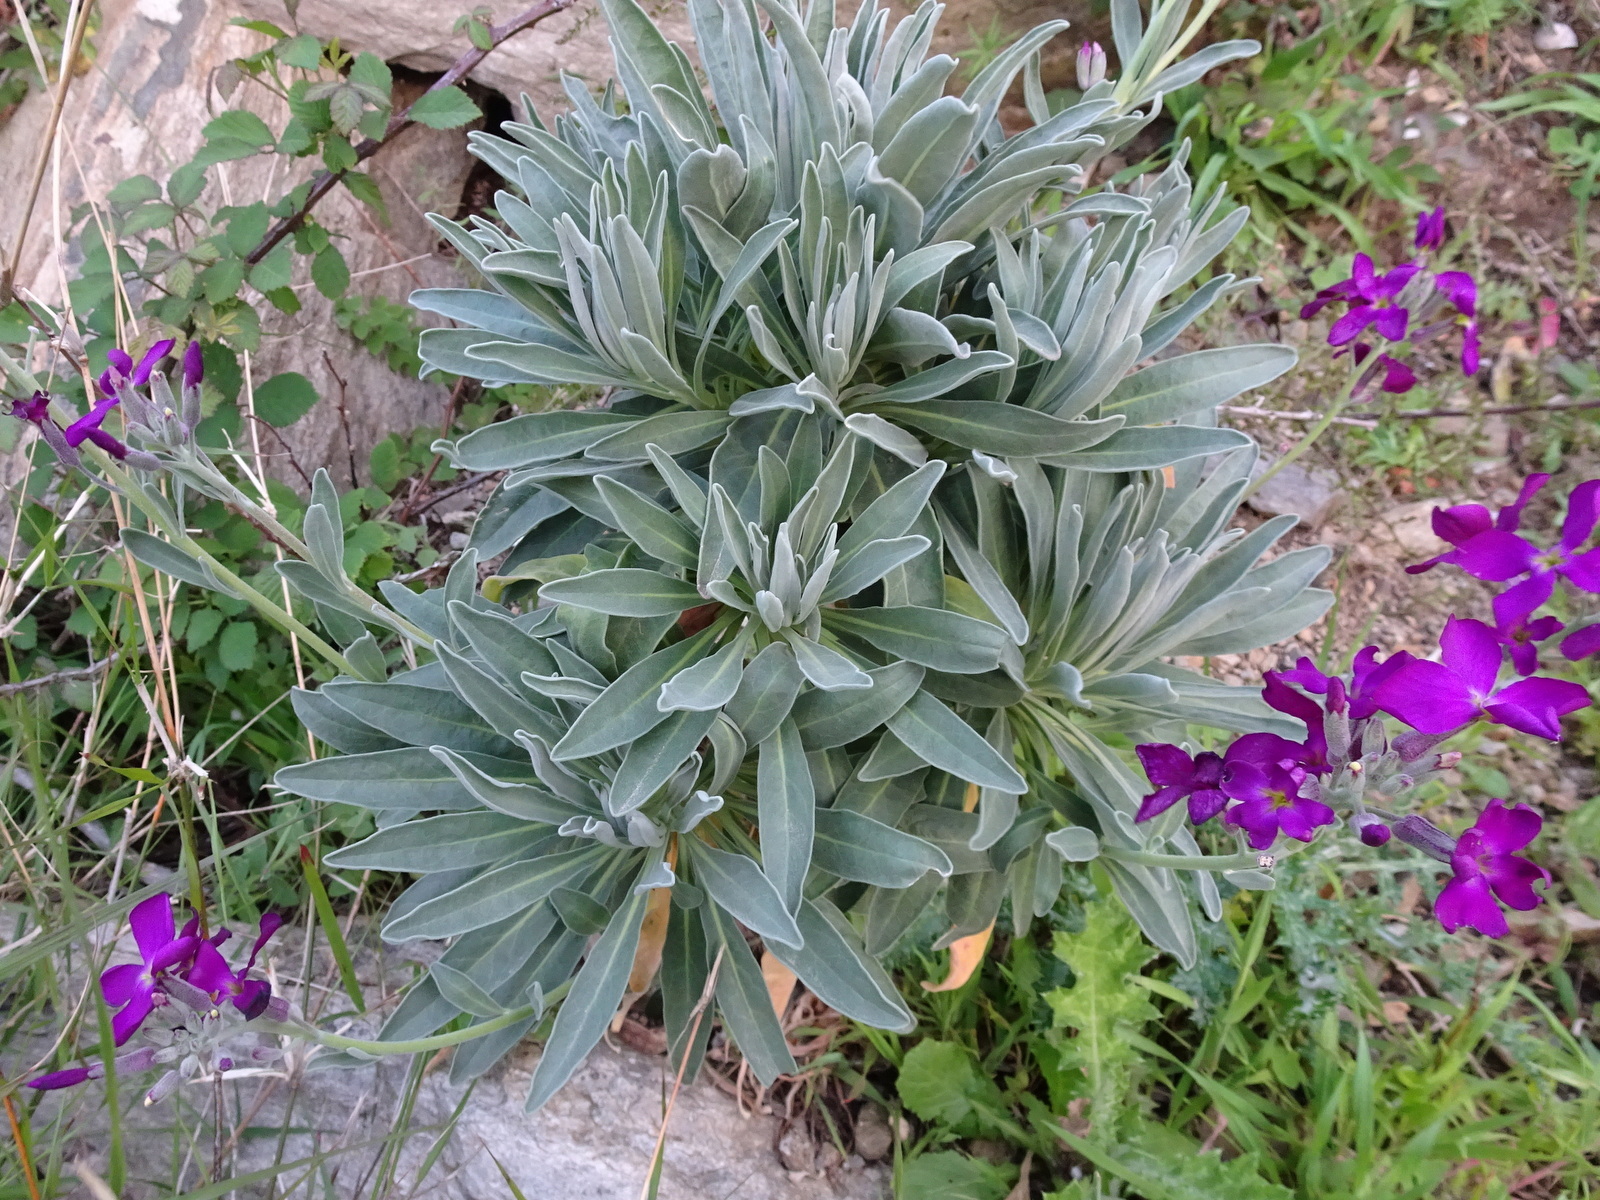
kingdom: Plantae
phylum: Tracheophyta
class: Magnoliopsida
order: Brassicales
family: Brassicaceae
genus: Matthiola
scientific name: Matthiola incana
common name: Hoary stock
